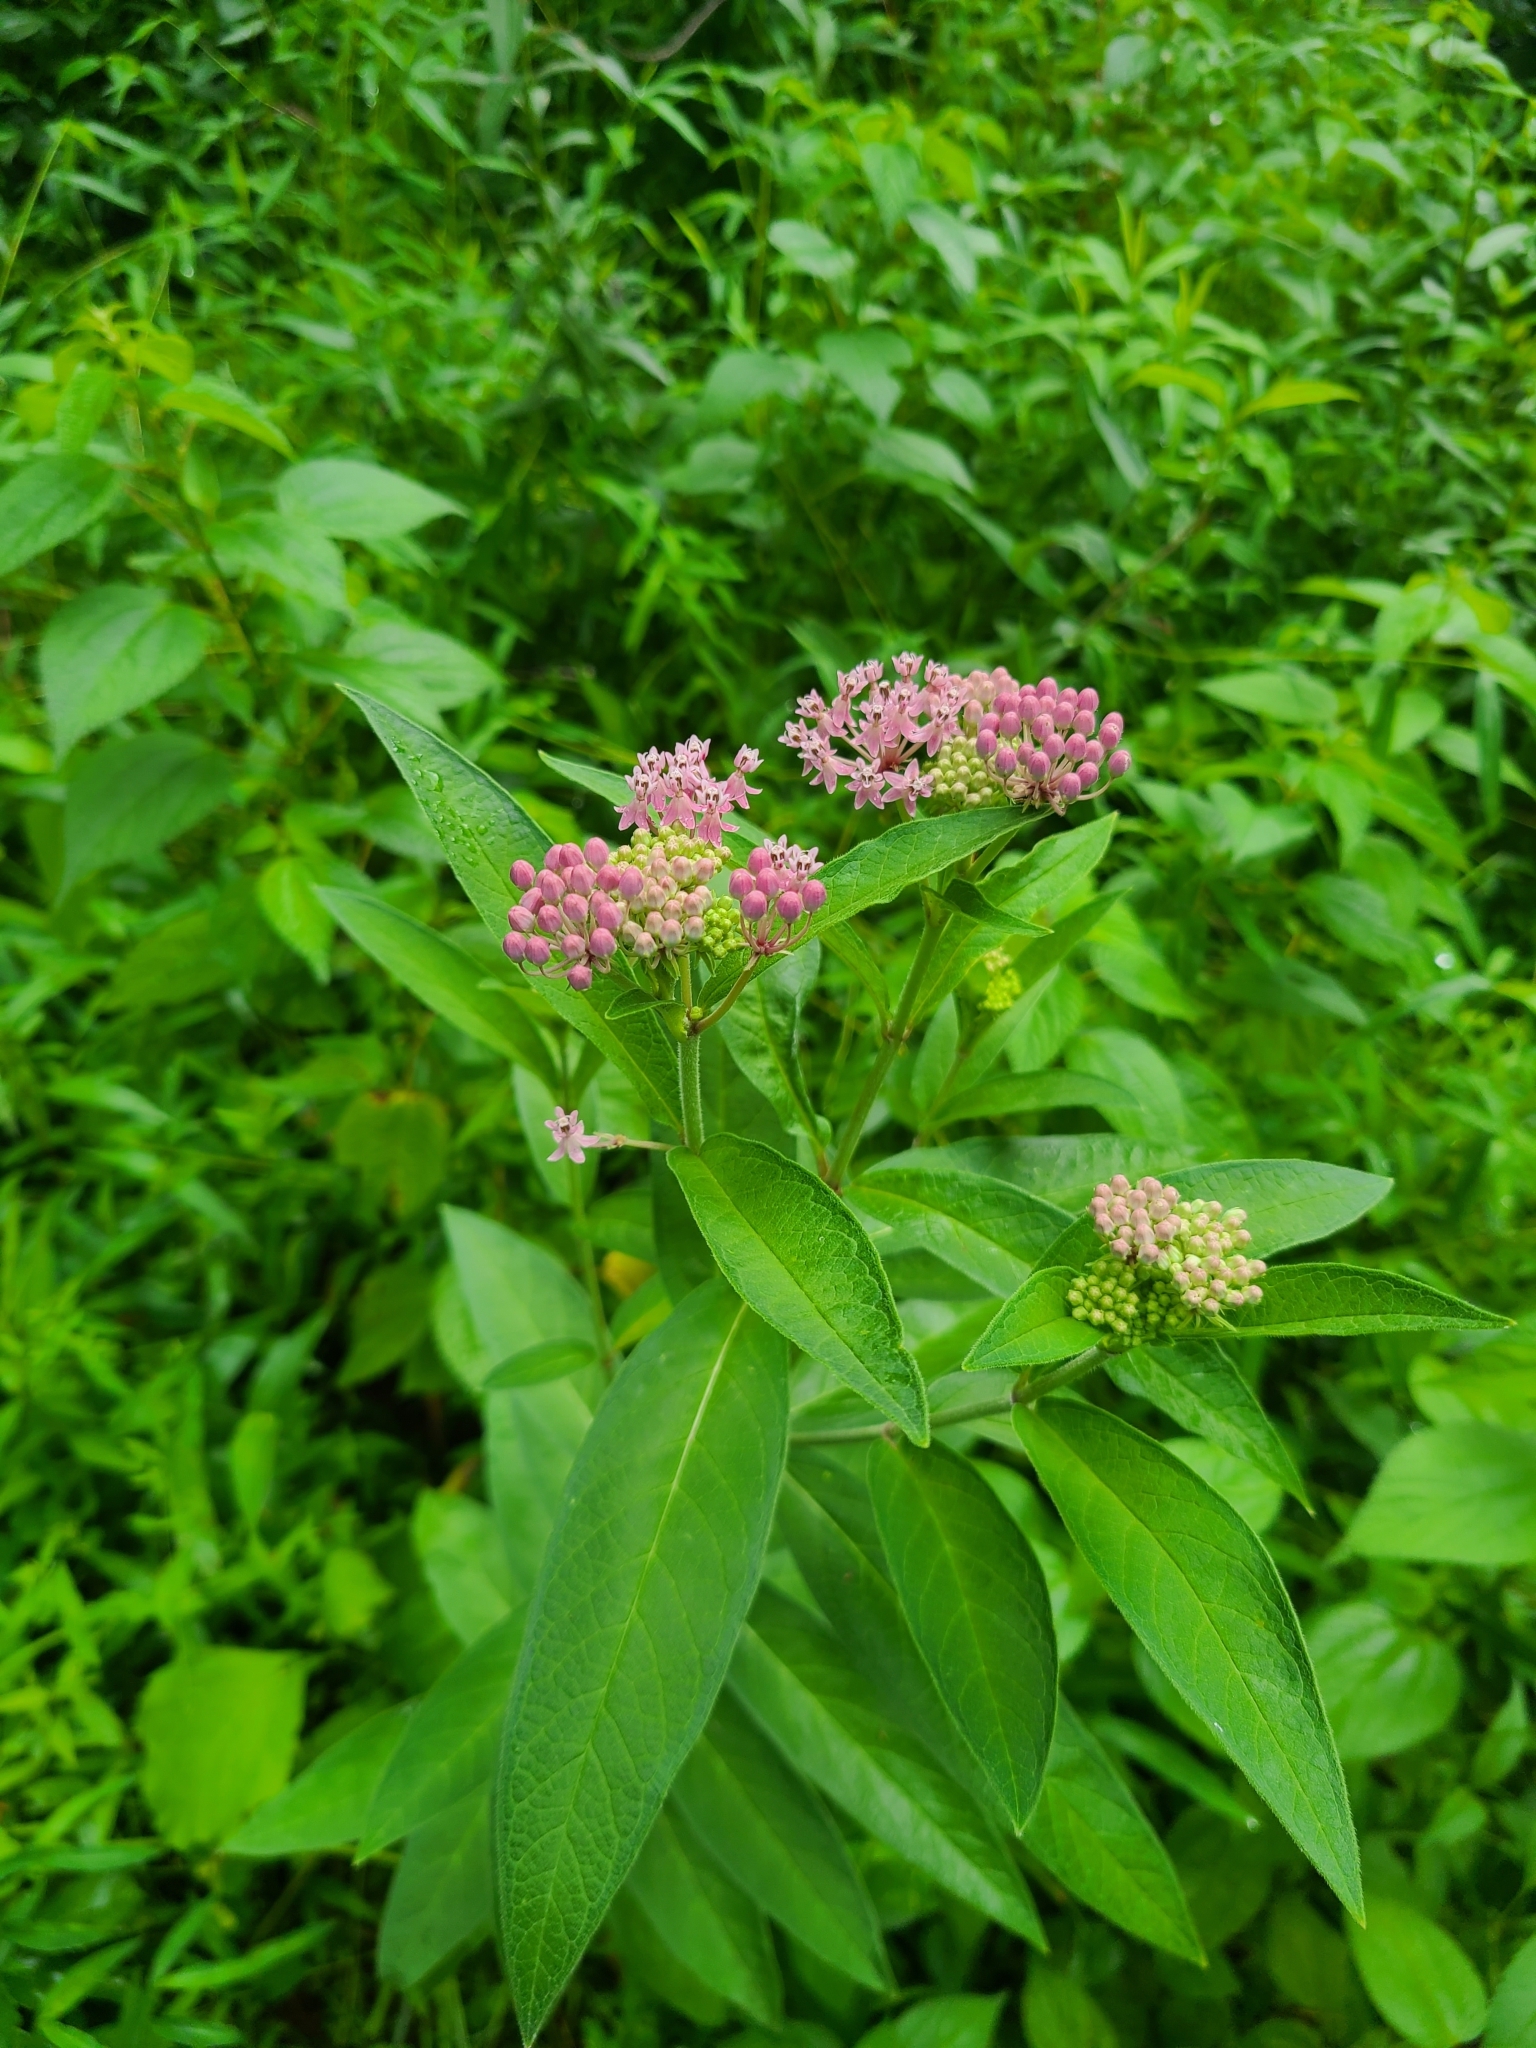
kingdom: Plantae
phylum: Tracheophyta
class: Magnoliopsida
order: Gentianales
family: Apocynaceae
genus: Asclepias
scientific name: Asclepias incarnata
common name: Swamp milkweed
